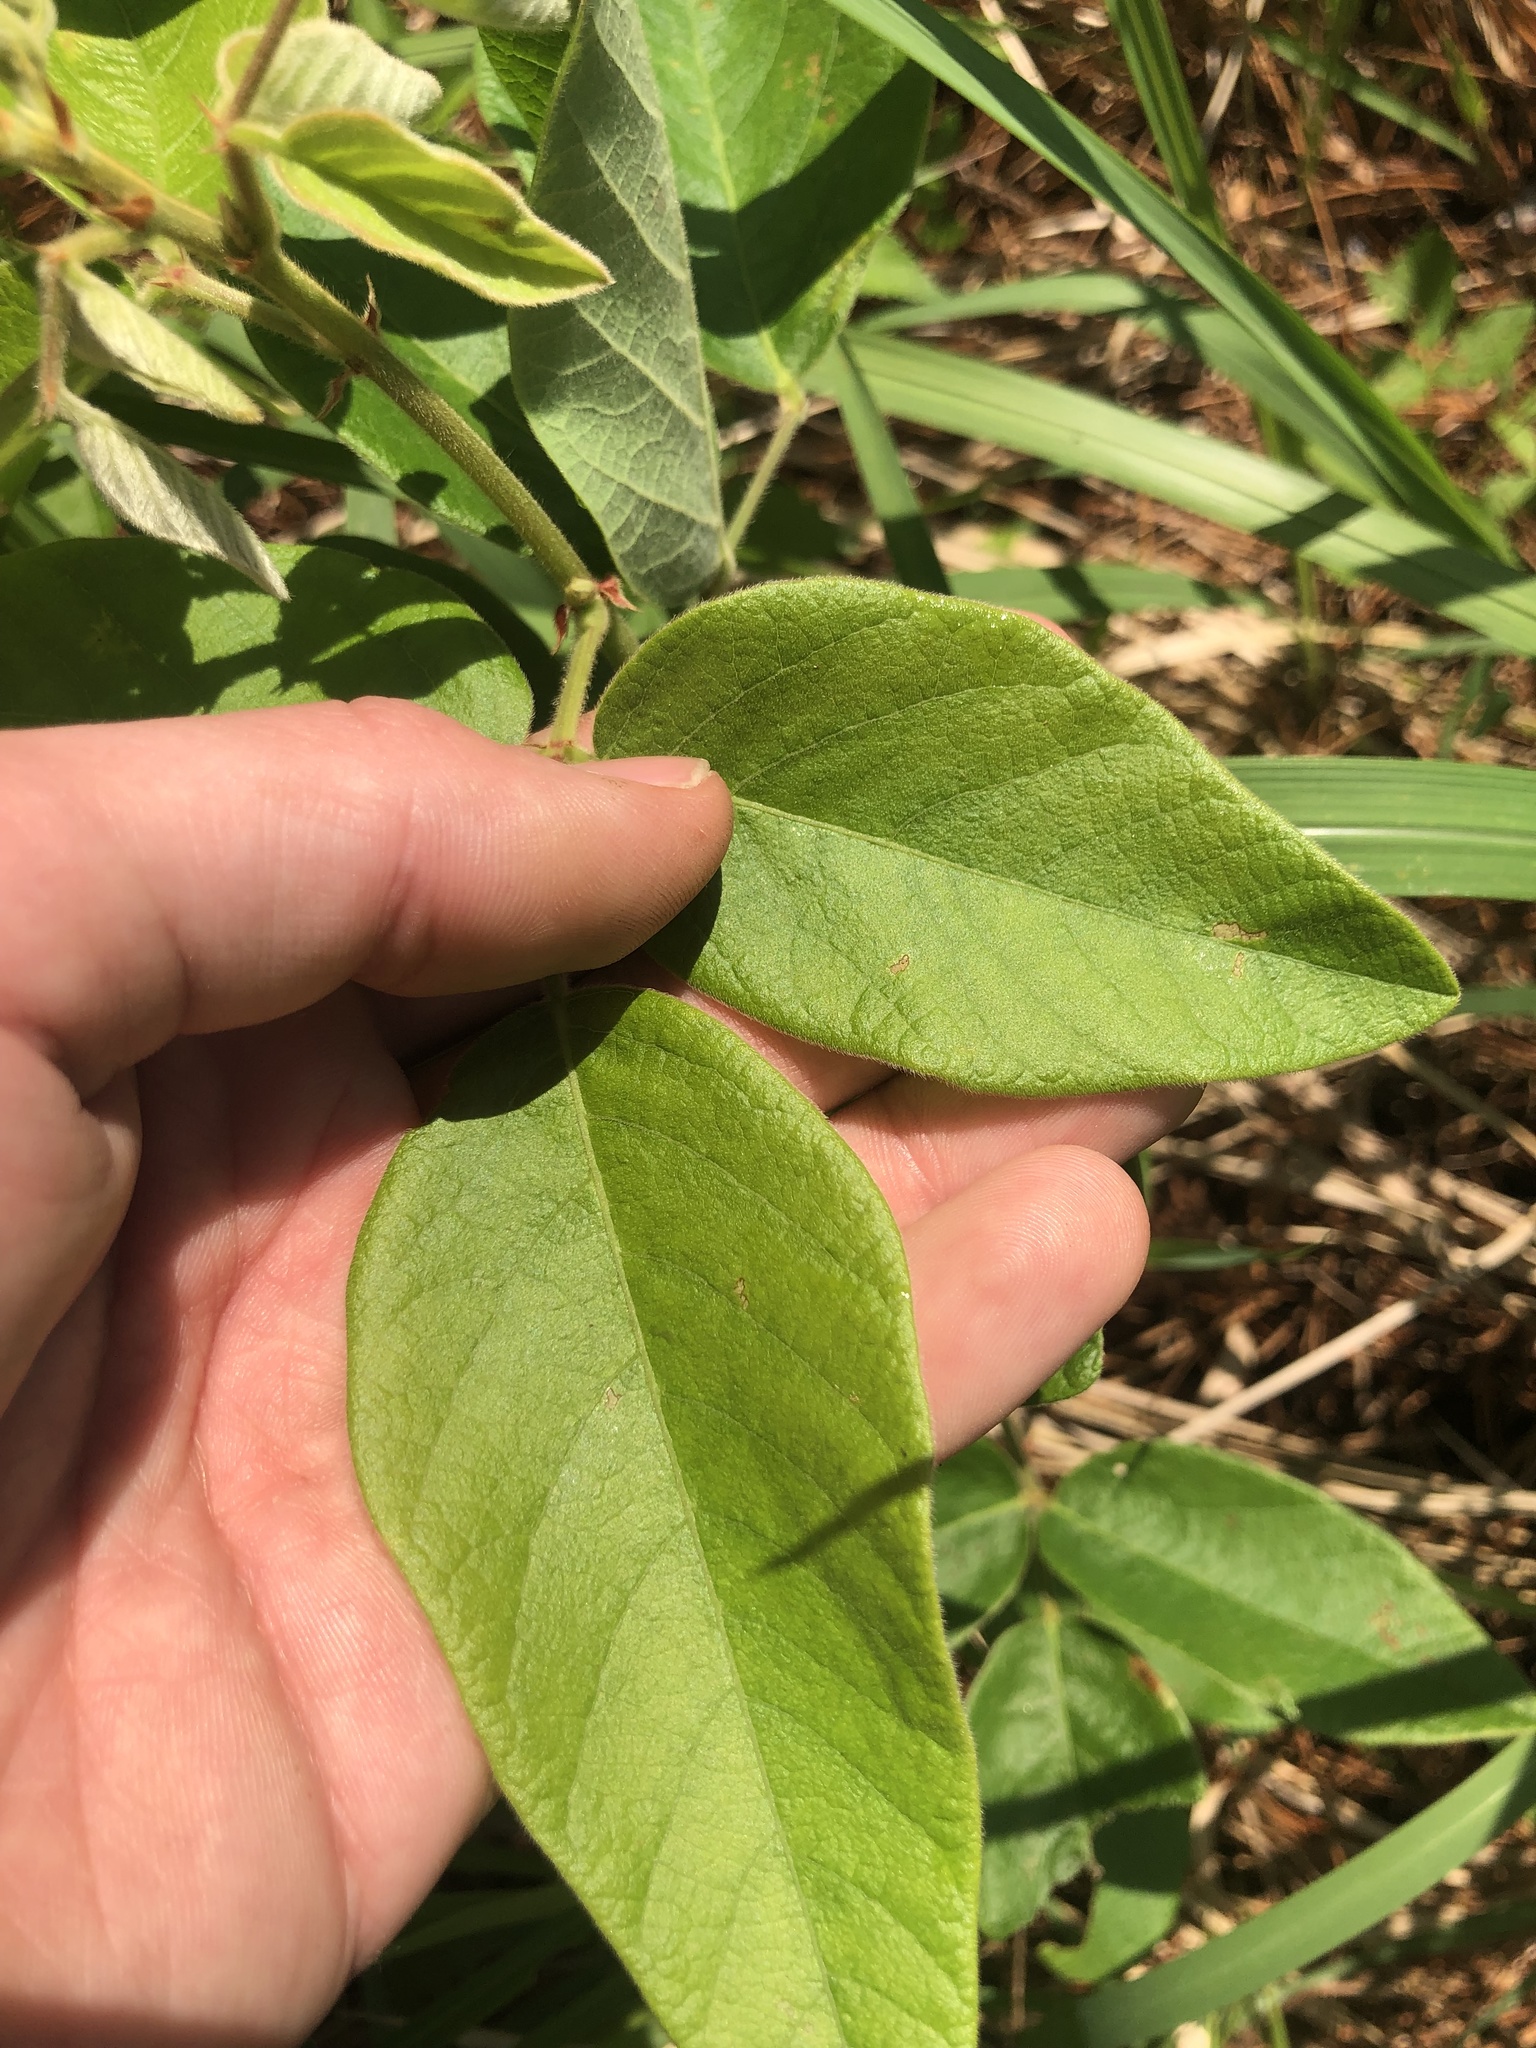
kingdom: Plantae
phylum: Tracheophyta
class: Magnoliopsida
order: Fabales
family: Fabaceae
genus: Desmodium
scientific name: Desmodium nuttallii
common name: Nuttall's tick trefoil
